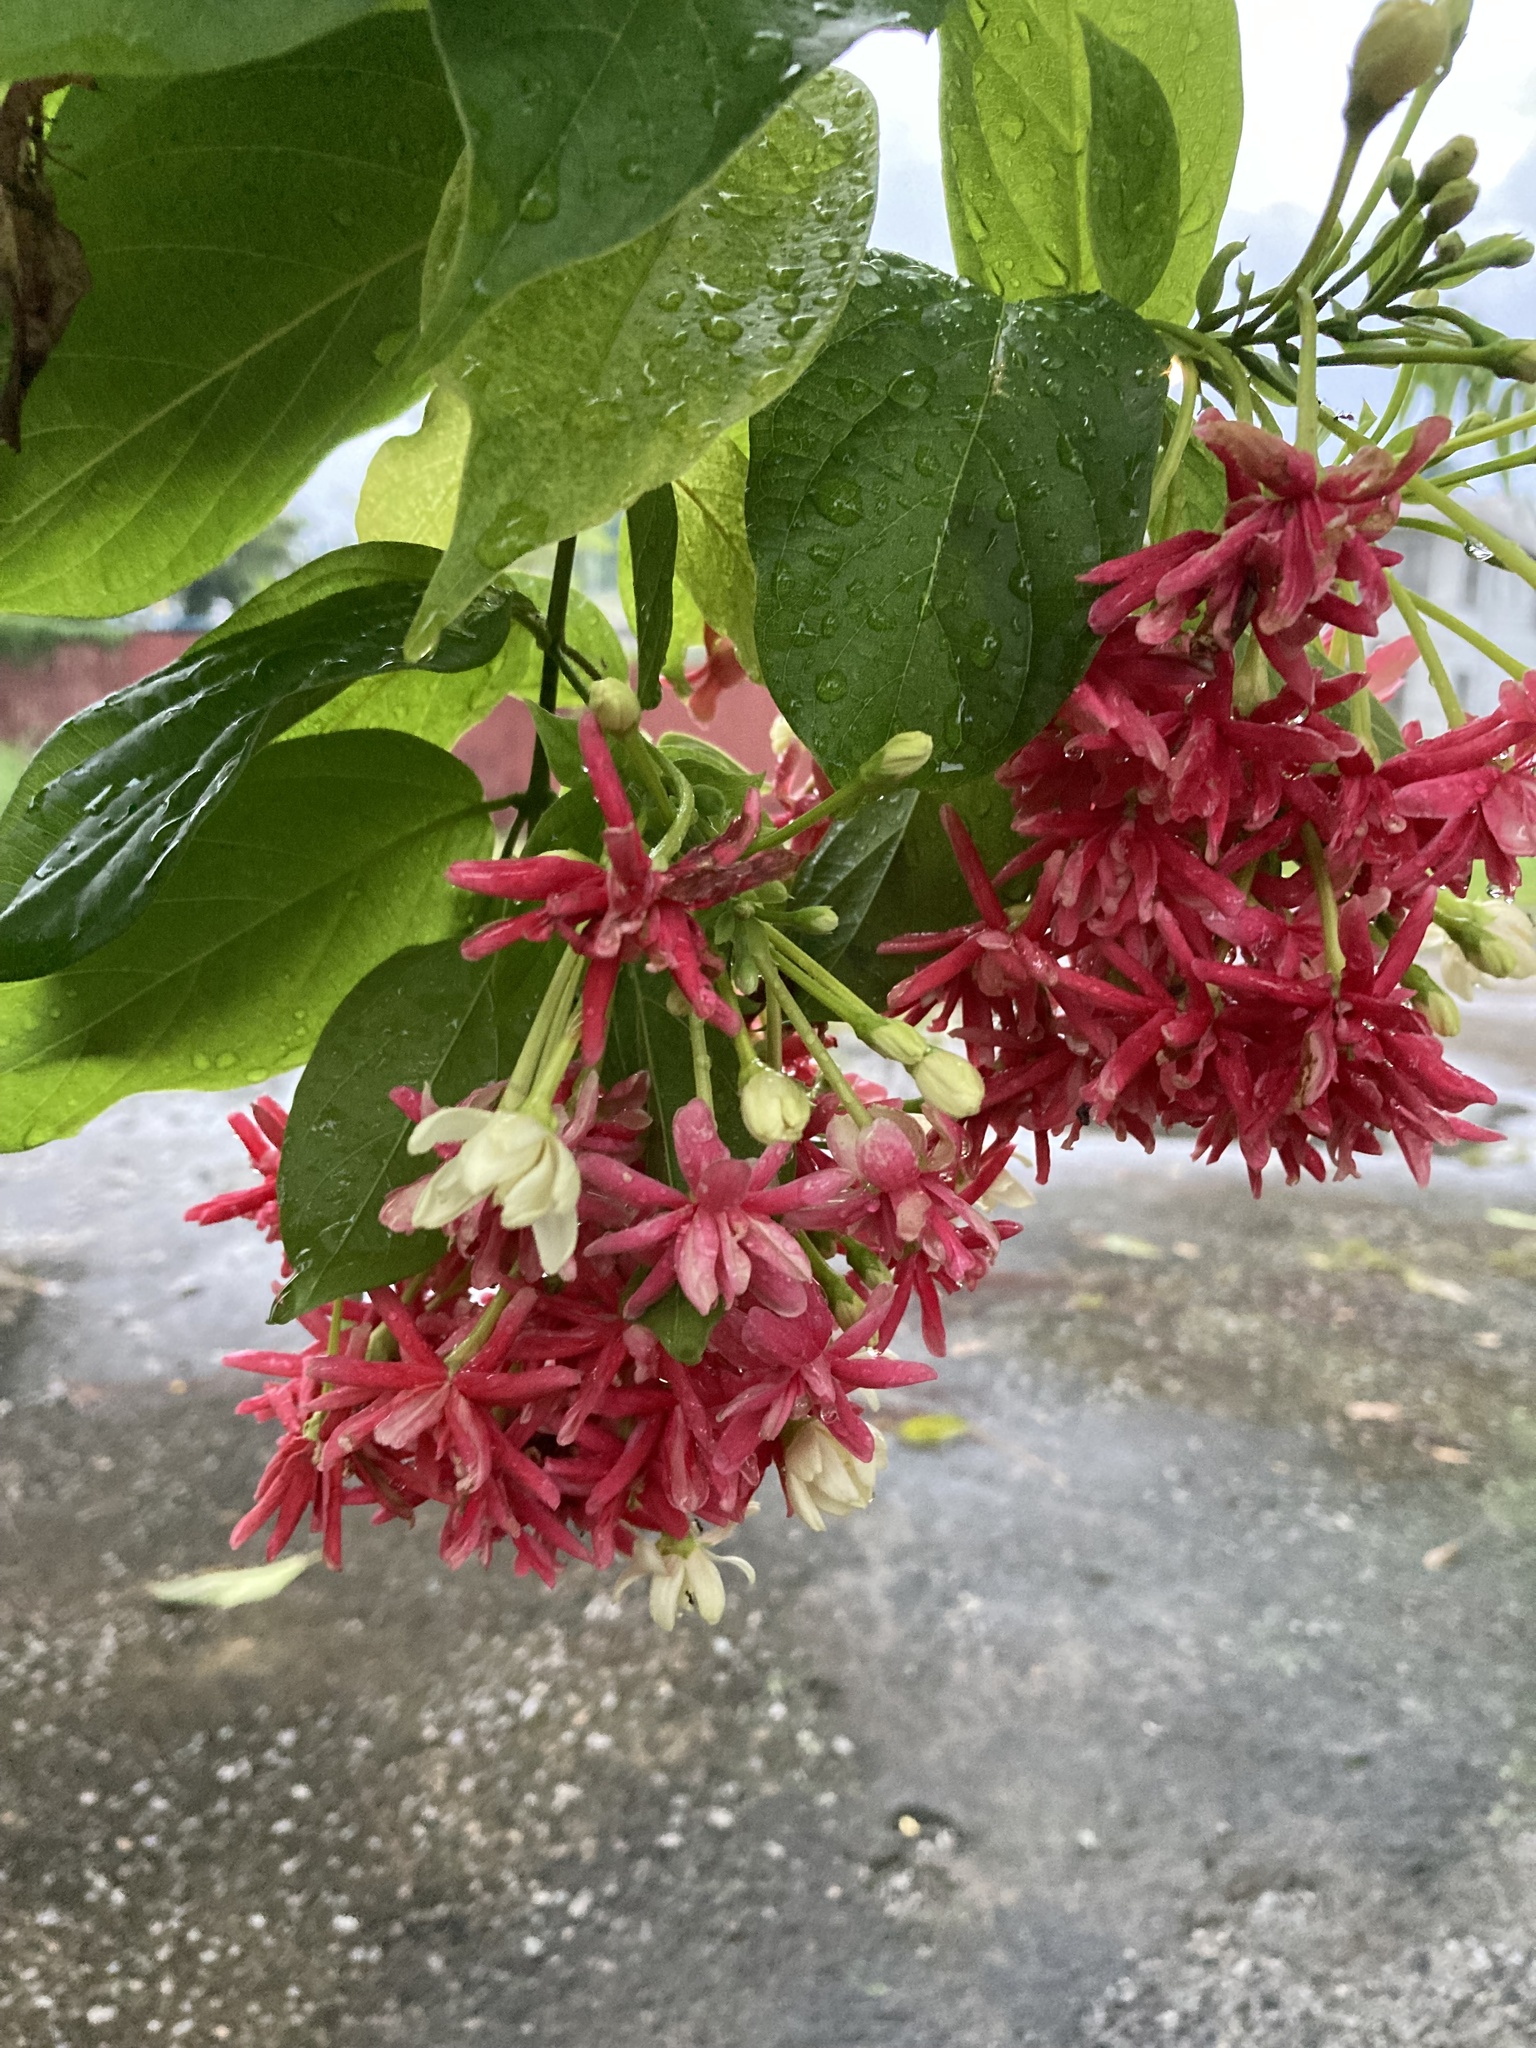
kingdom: Plantae
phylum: Tracheophyta
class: Magnoliopsida
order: Myrtales
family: Combretaceae
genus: Combretum
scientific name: Combretum indicum
